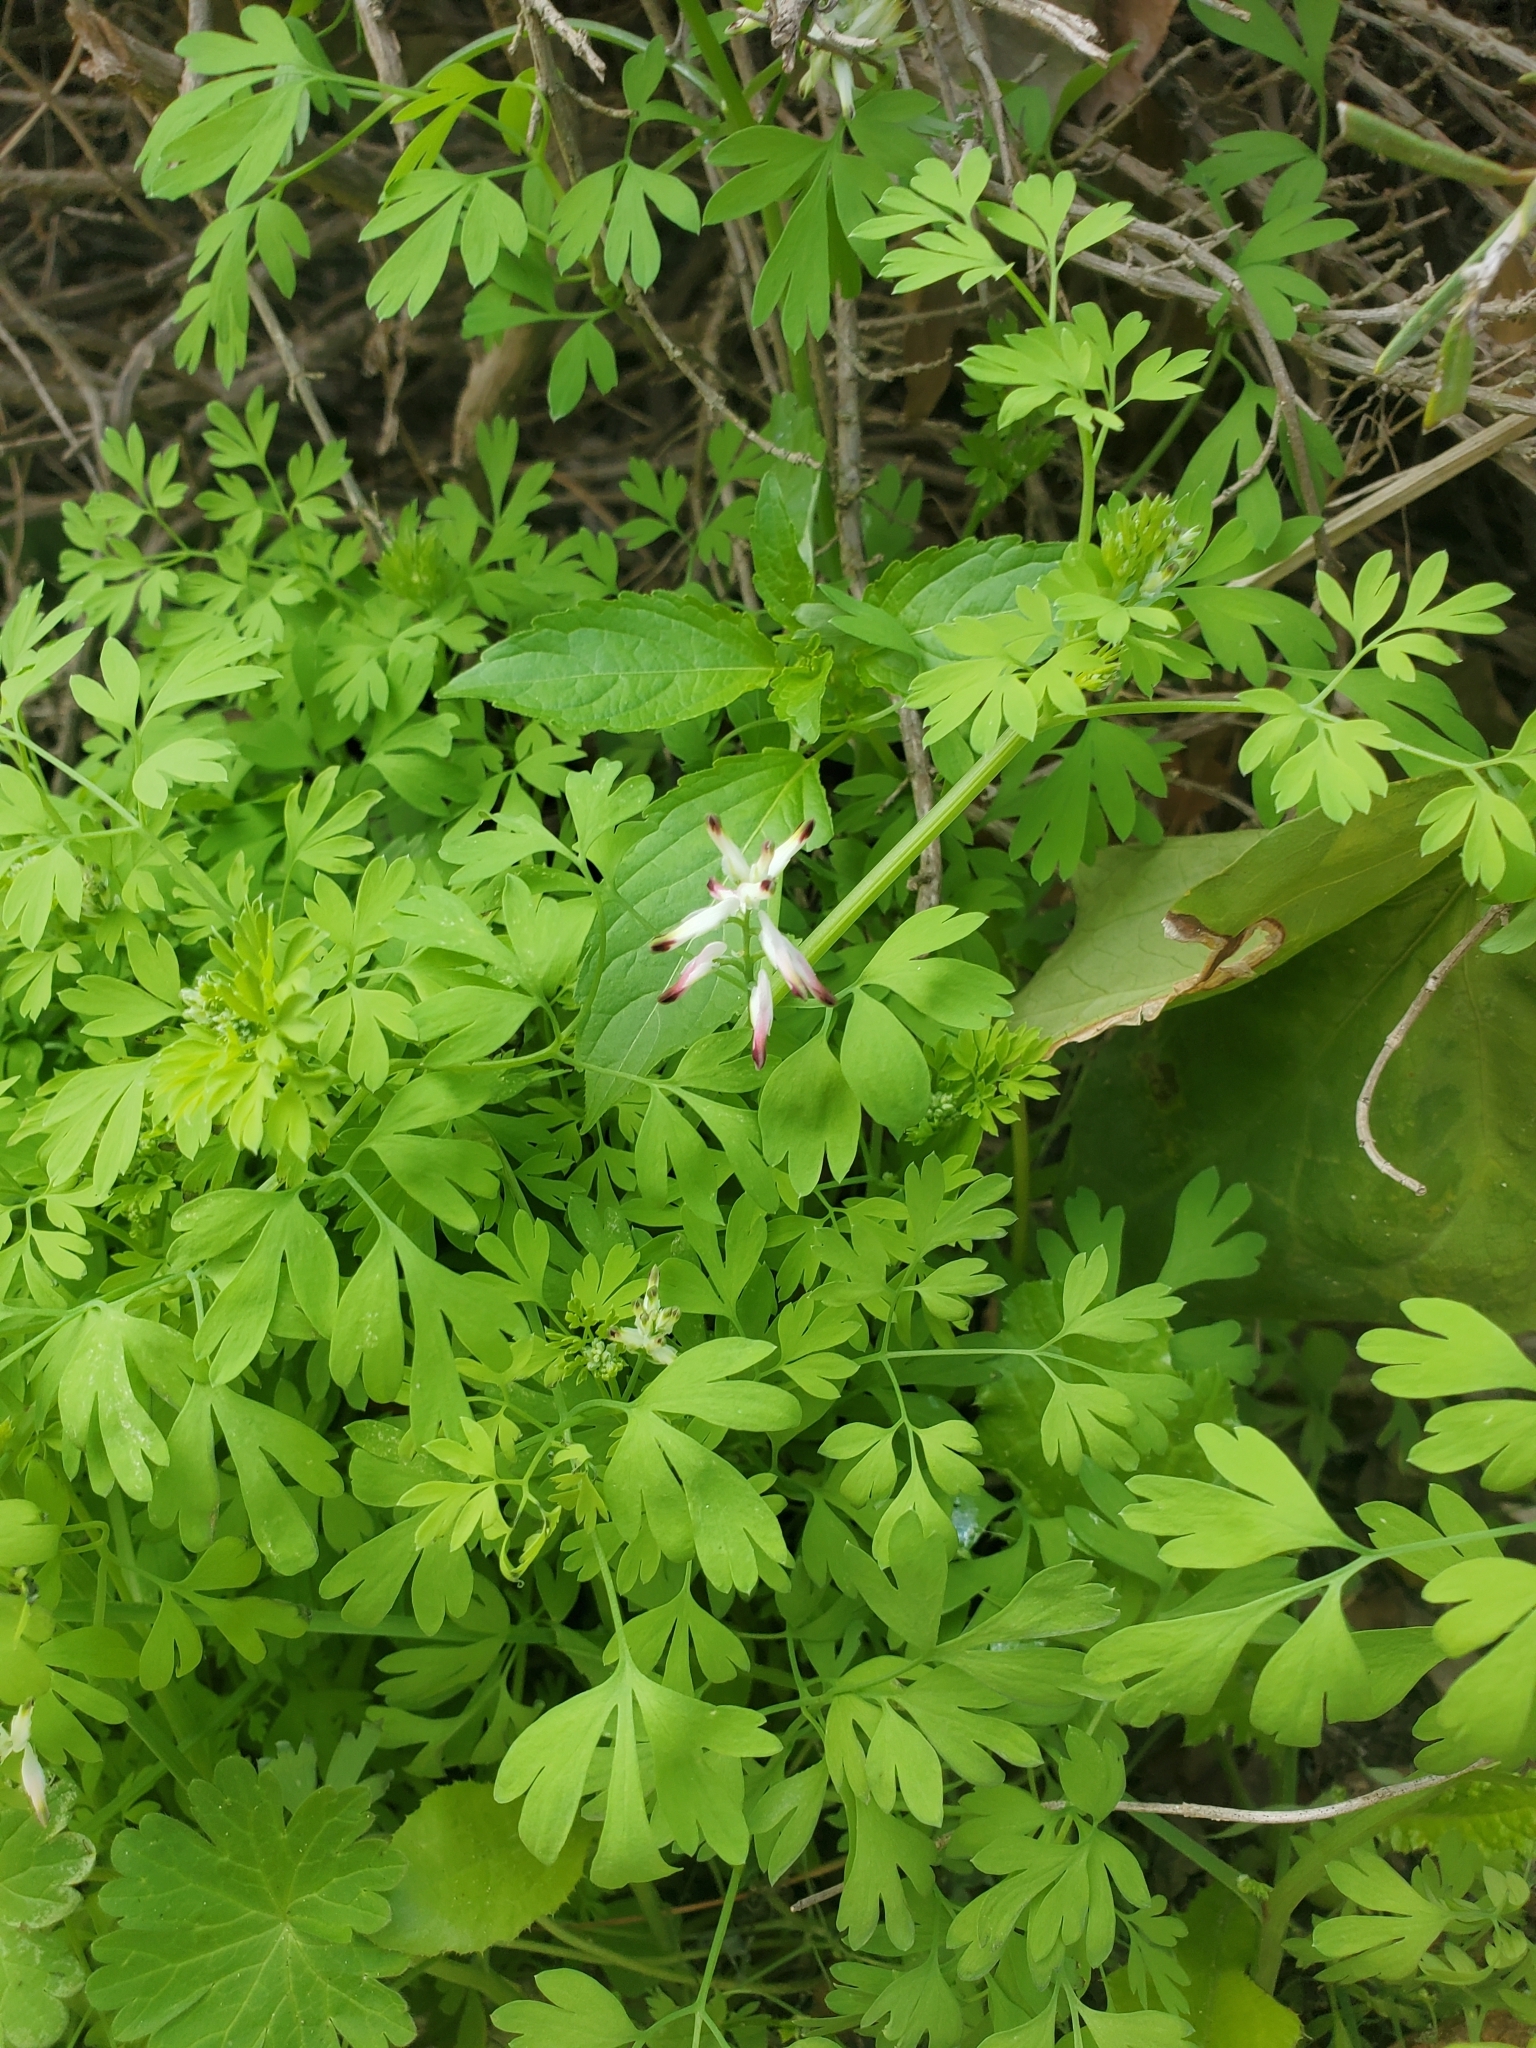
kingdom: Plantae
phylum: Tracheophyta
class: Magnoliopsida
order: Ranunculales
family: Papaveraceae
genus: Fumaria
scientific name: Fumaria capreolata
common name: White ramping-fumitory
